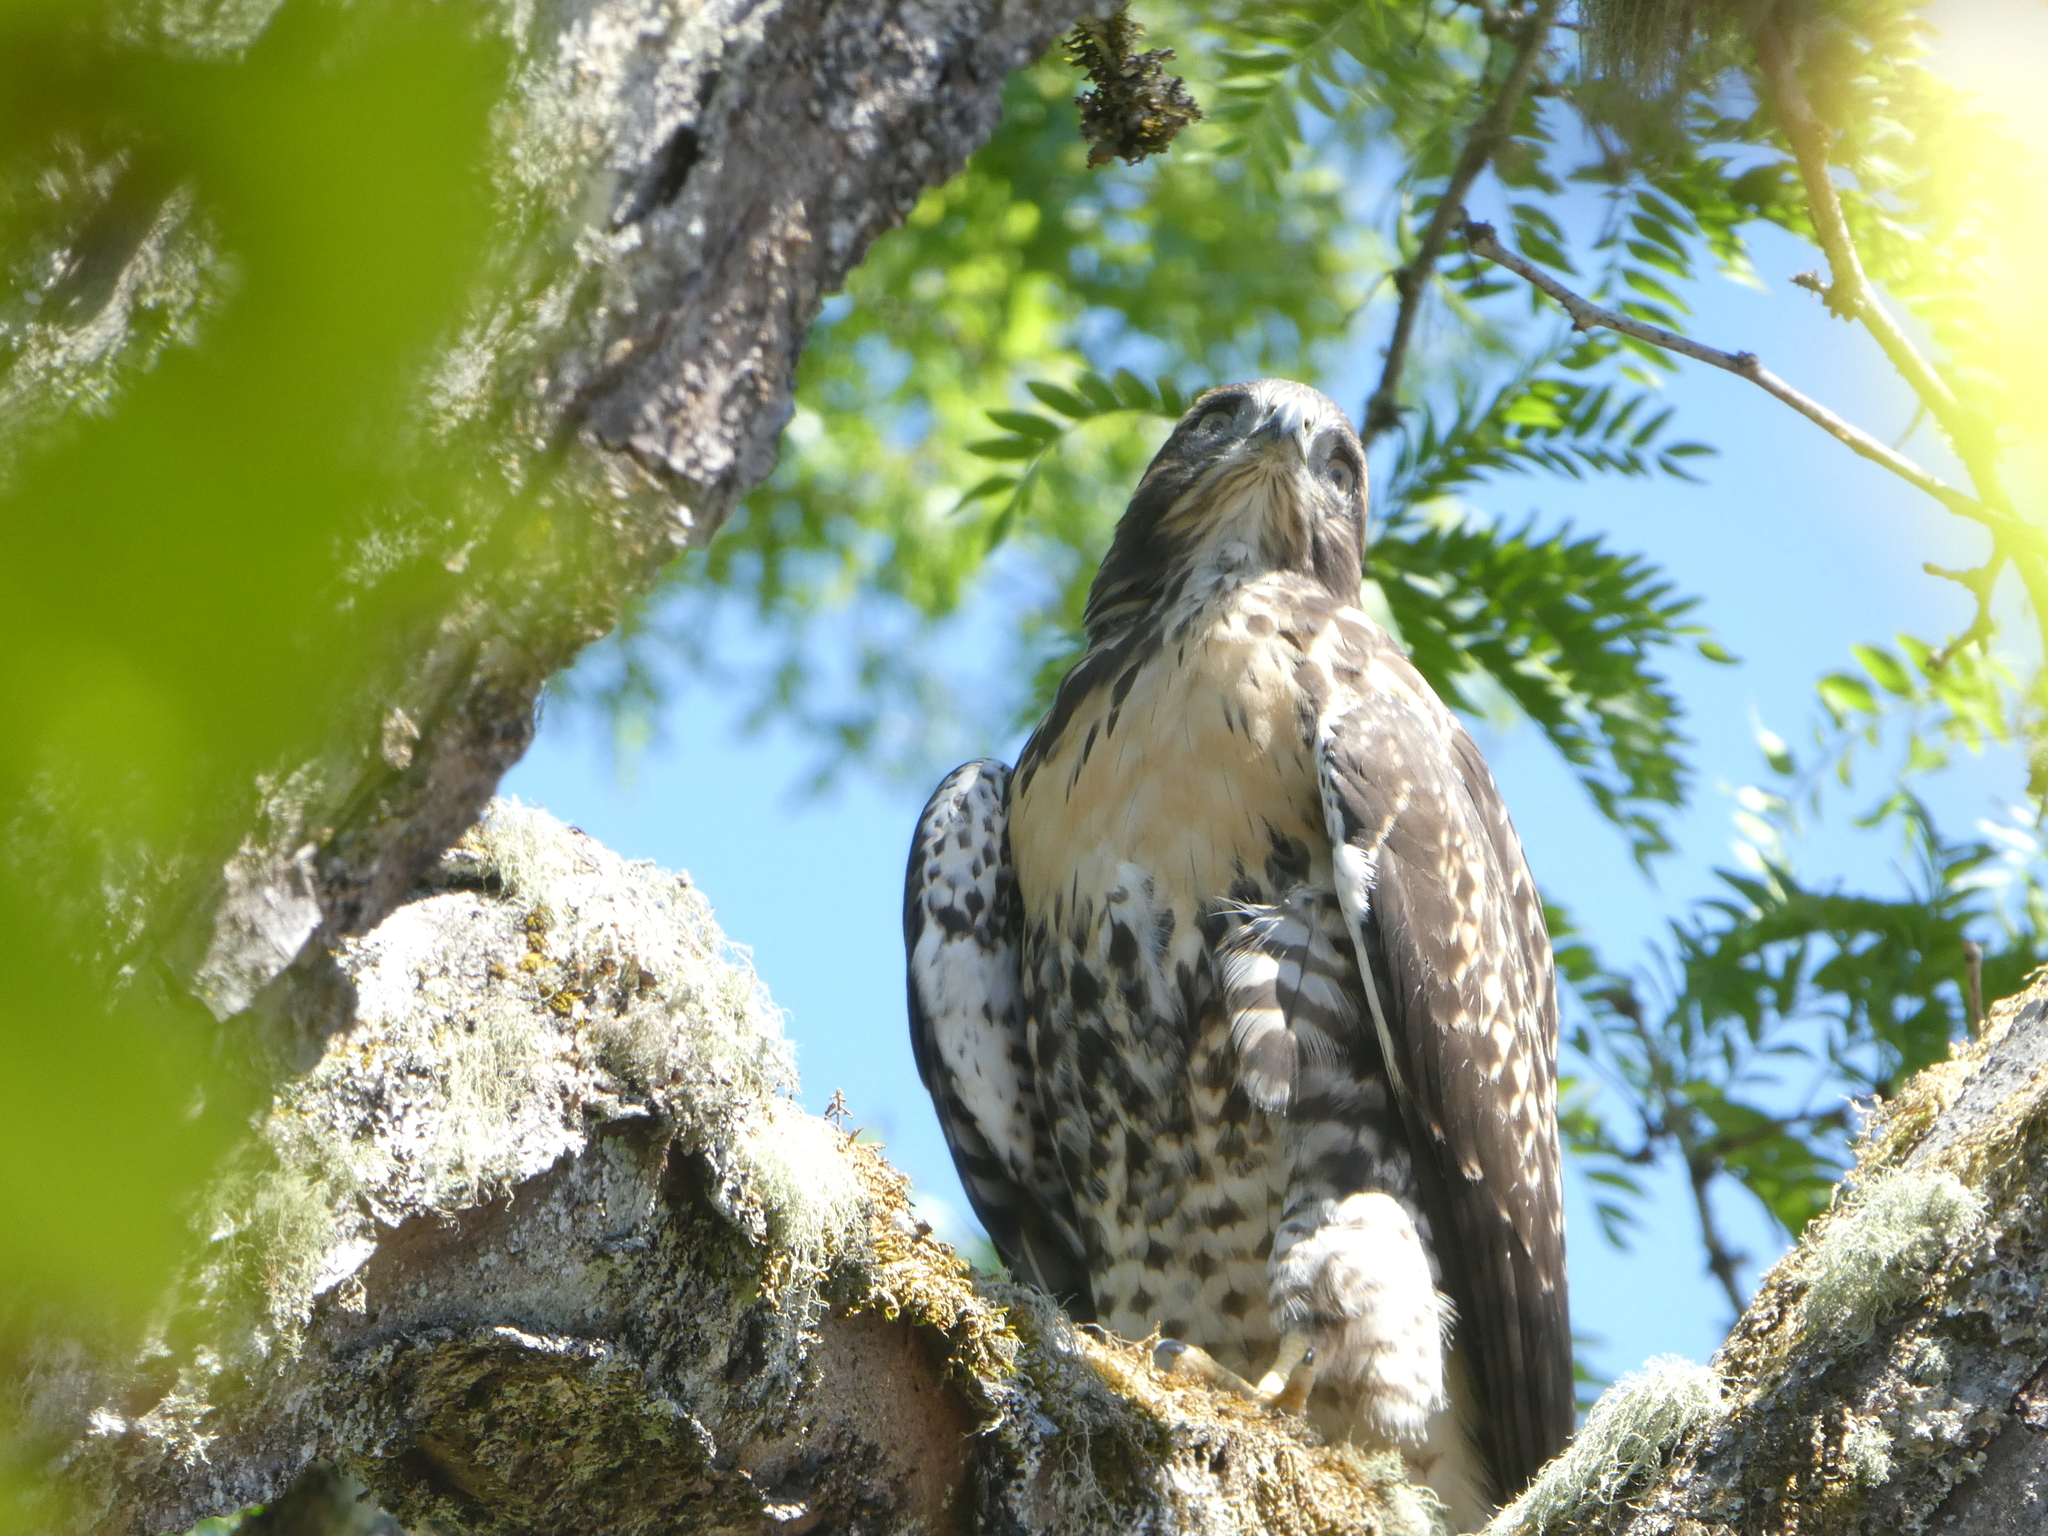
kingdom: Animalia
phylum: Chordata
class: Aves
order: Accipitriformes
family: Accipitridae
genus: Buteo
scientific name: Buteo jamaicensis
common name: Red-tailed hawk
